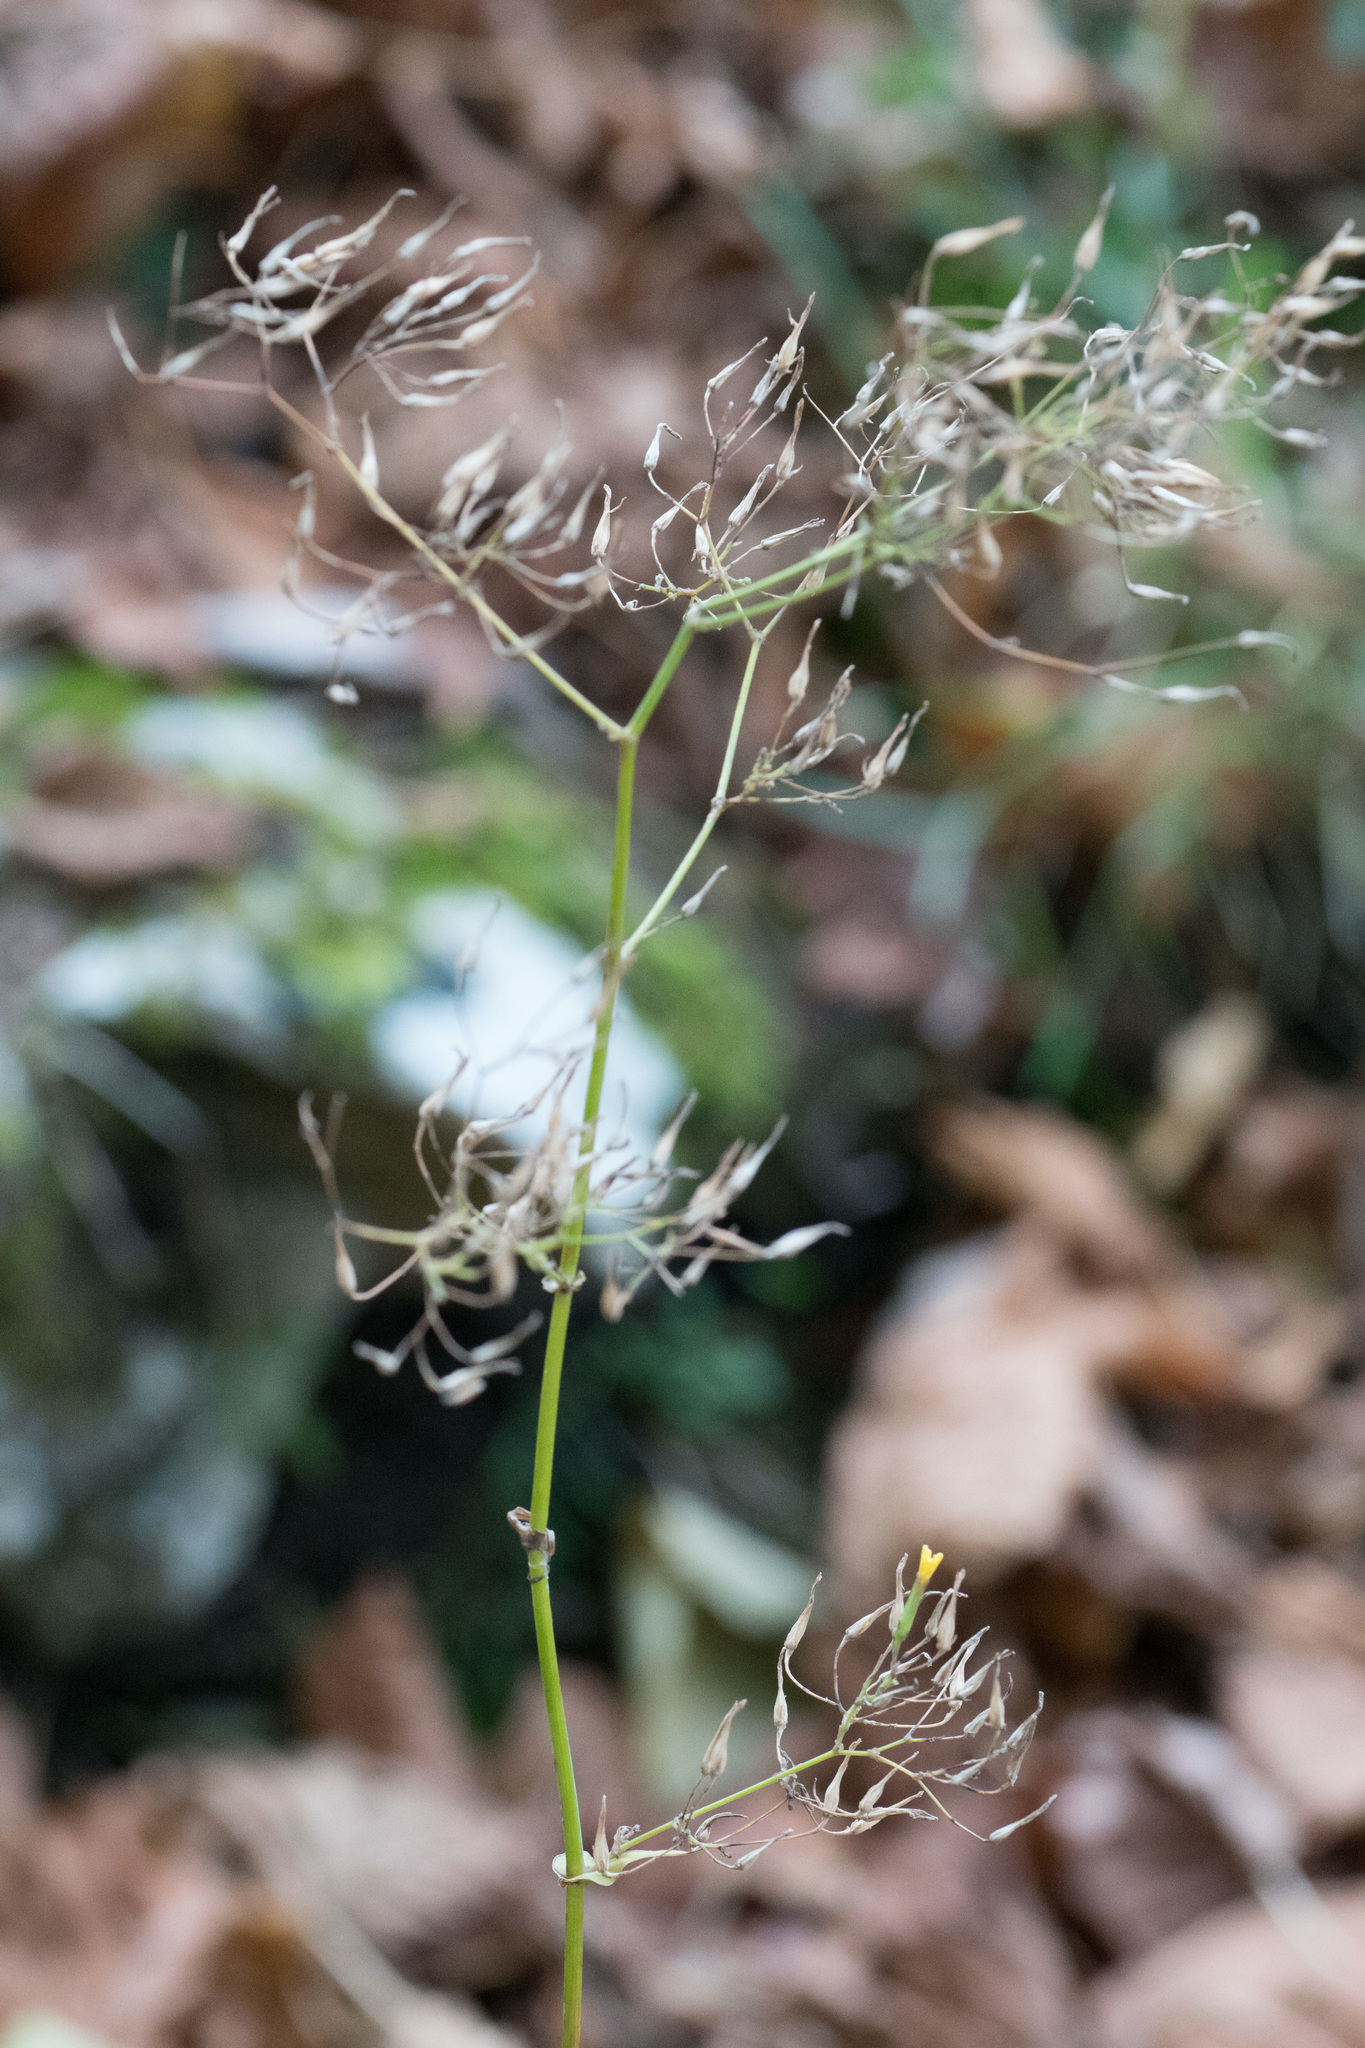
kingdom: Plantae
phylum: Tracheophyta
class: Magnoliopsida
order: Asterales
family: Asteraceae
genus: Mycelis
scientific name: Mycelis muralis
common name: Wall lettuce
